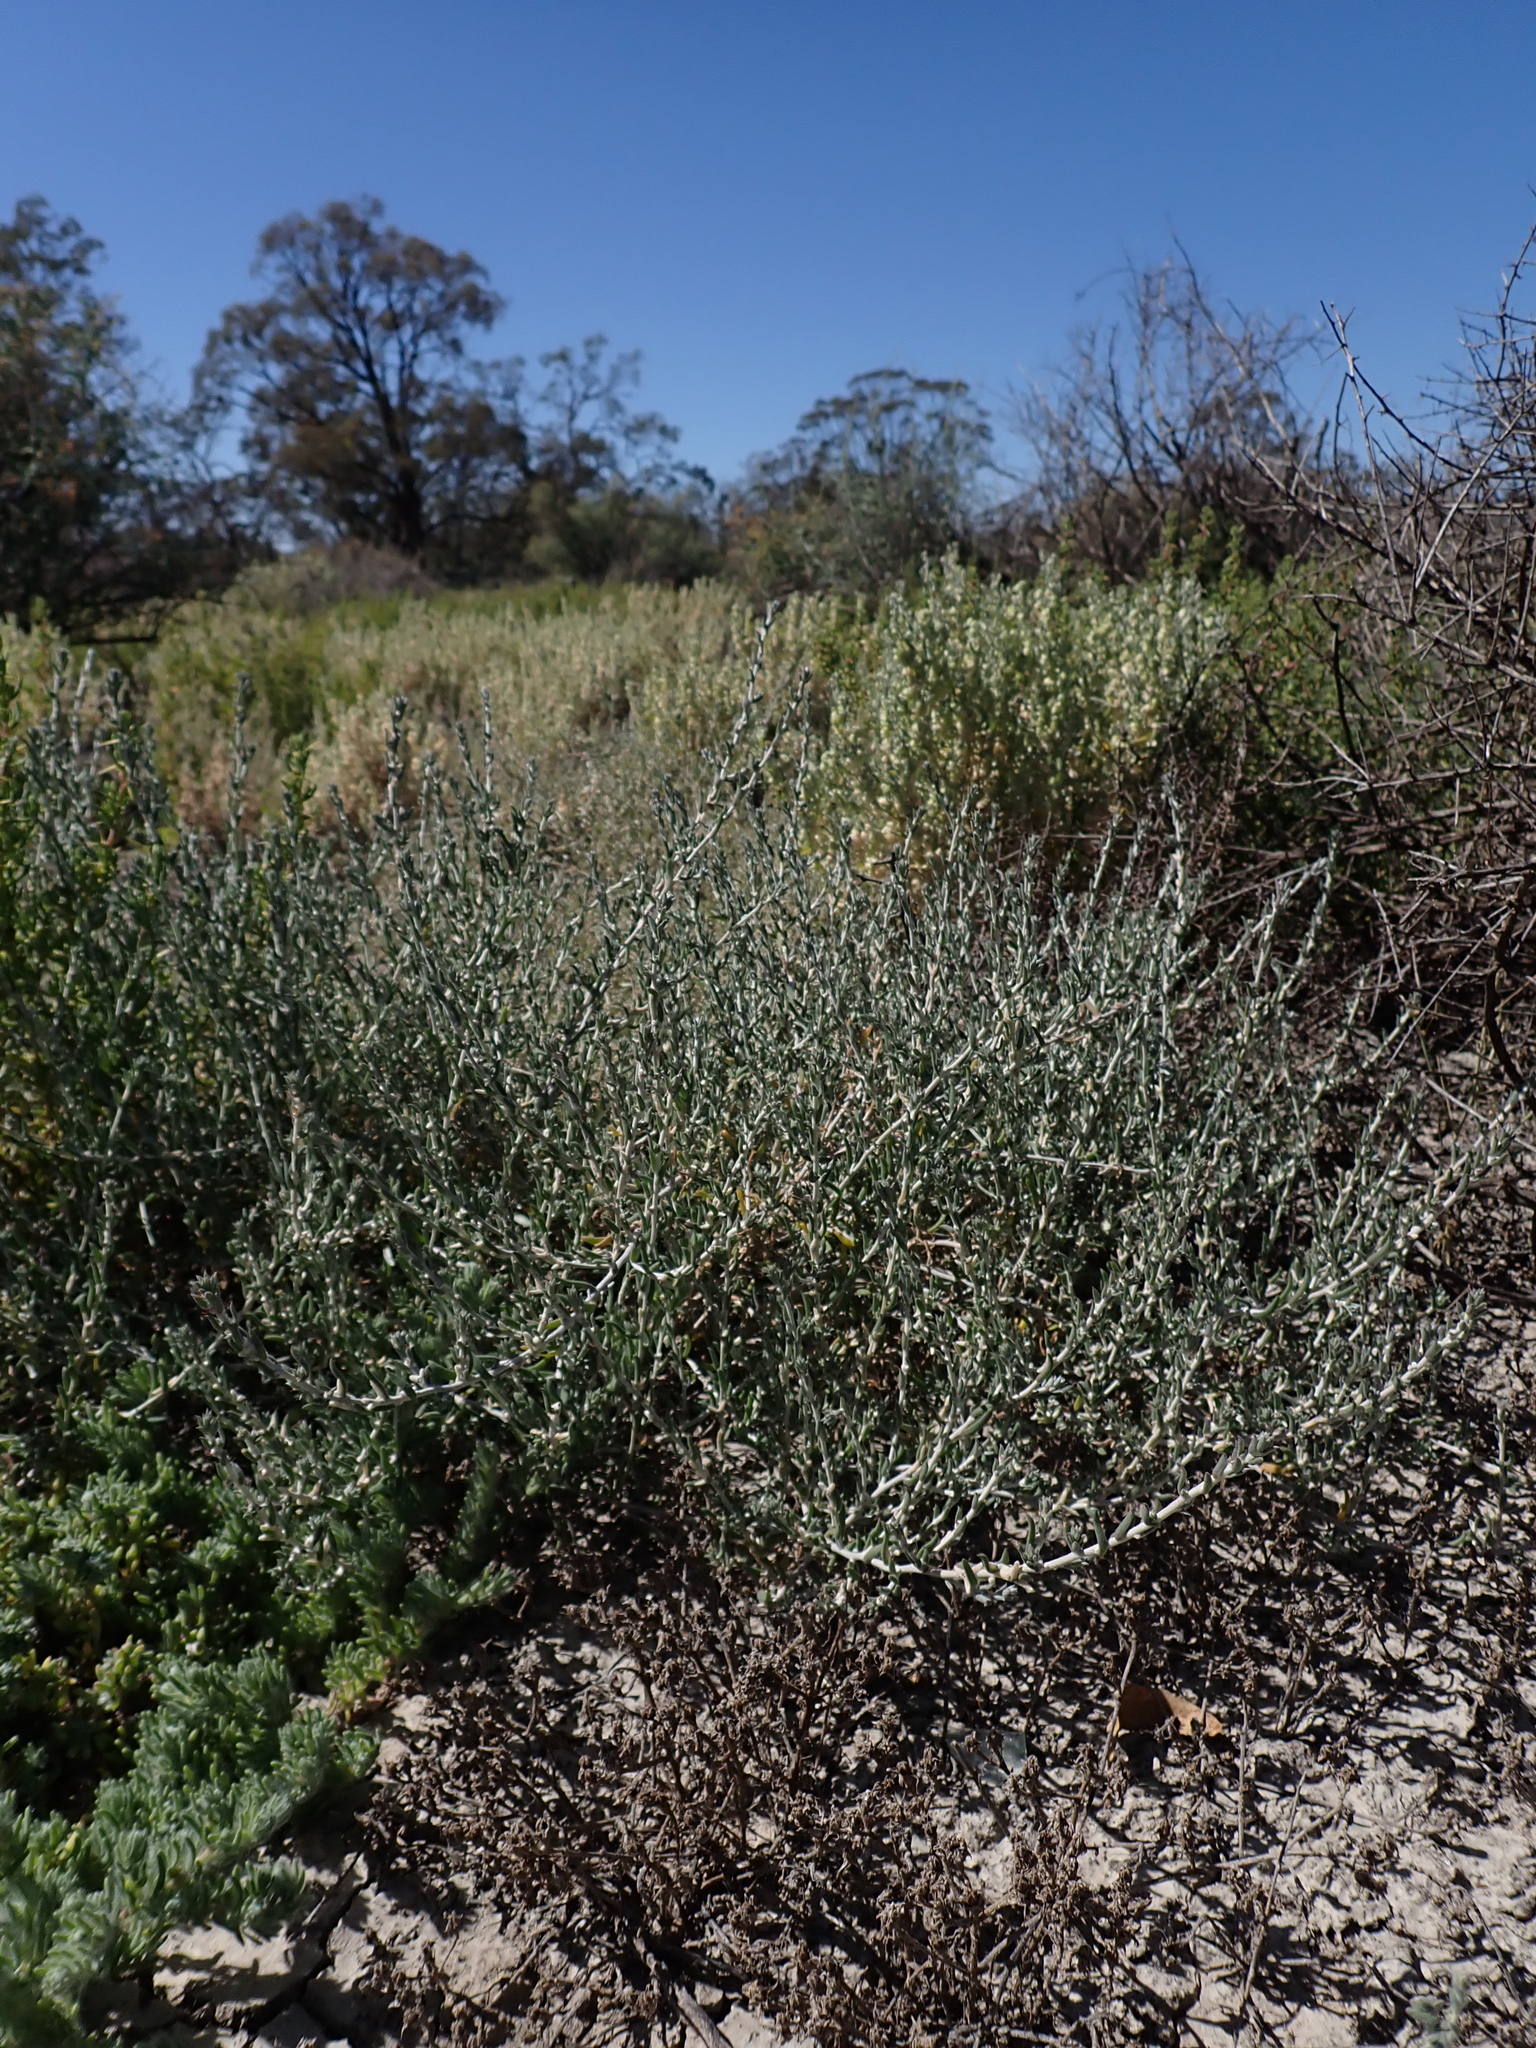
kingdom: Plantae
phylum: Tracheophyta
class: Magnoliopsida
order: Caryophyllales
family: Amaranthaceae
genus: Malacocera
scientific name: Malacocera tricornis
